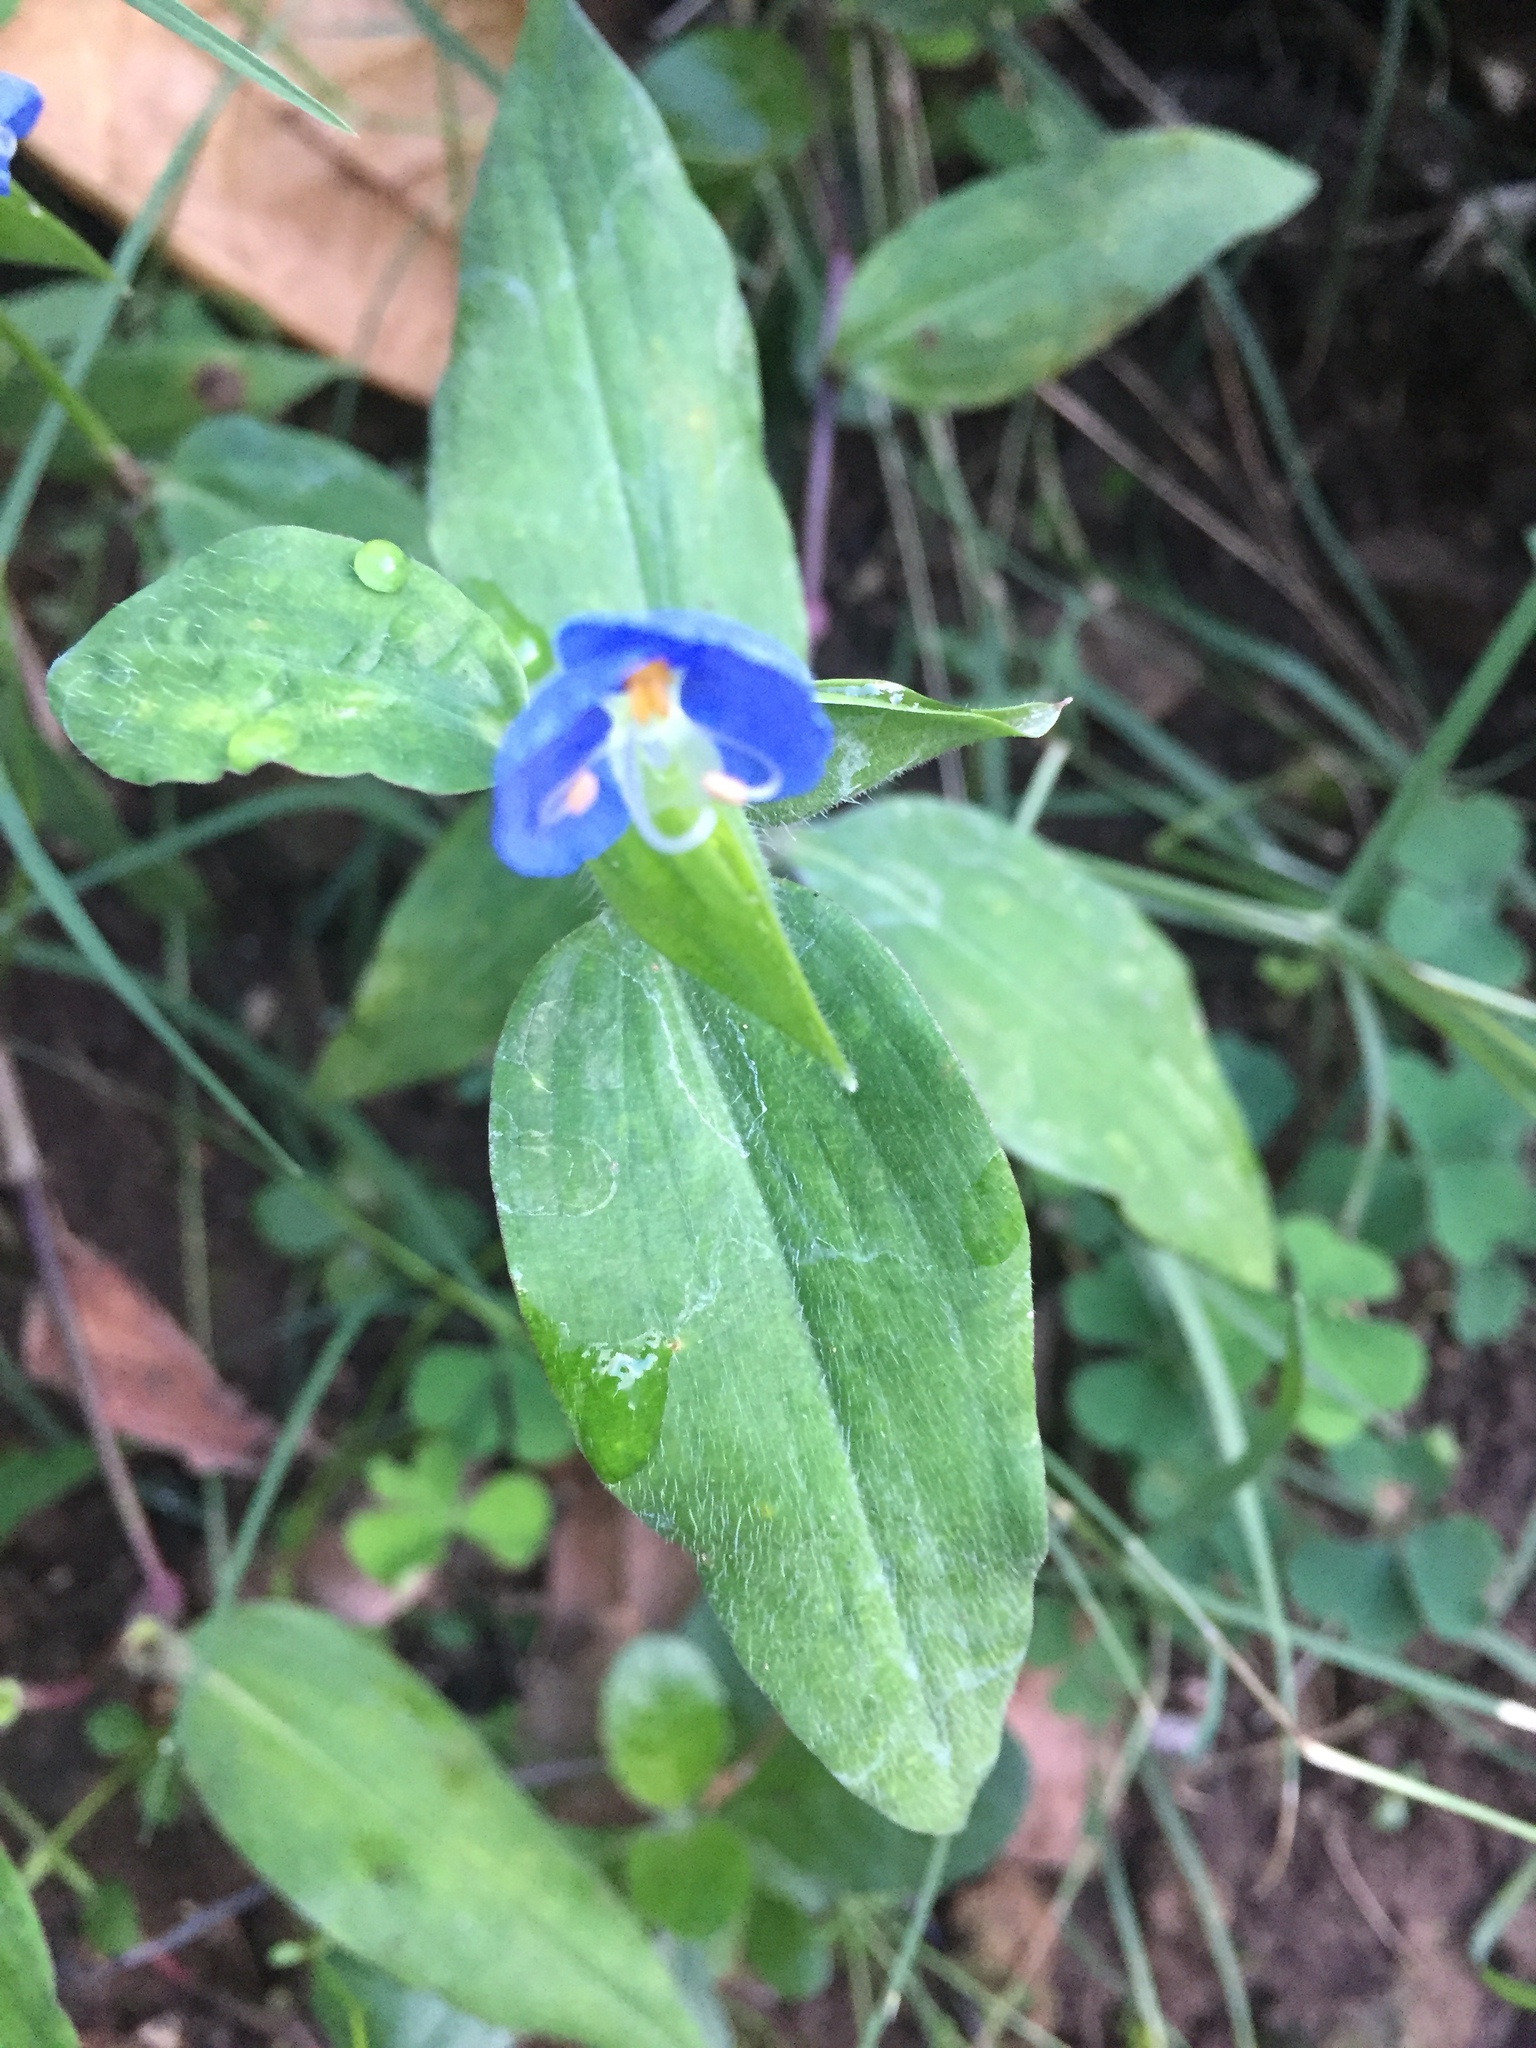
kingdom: Plantae
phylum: Tracheophyta
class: Liliopsida
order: Commelinales
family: Commelinaceae
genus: Commelina
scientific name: Commelina erecta
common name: Blousel blommetjie
